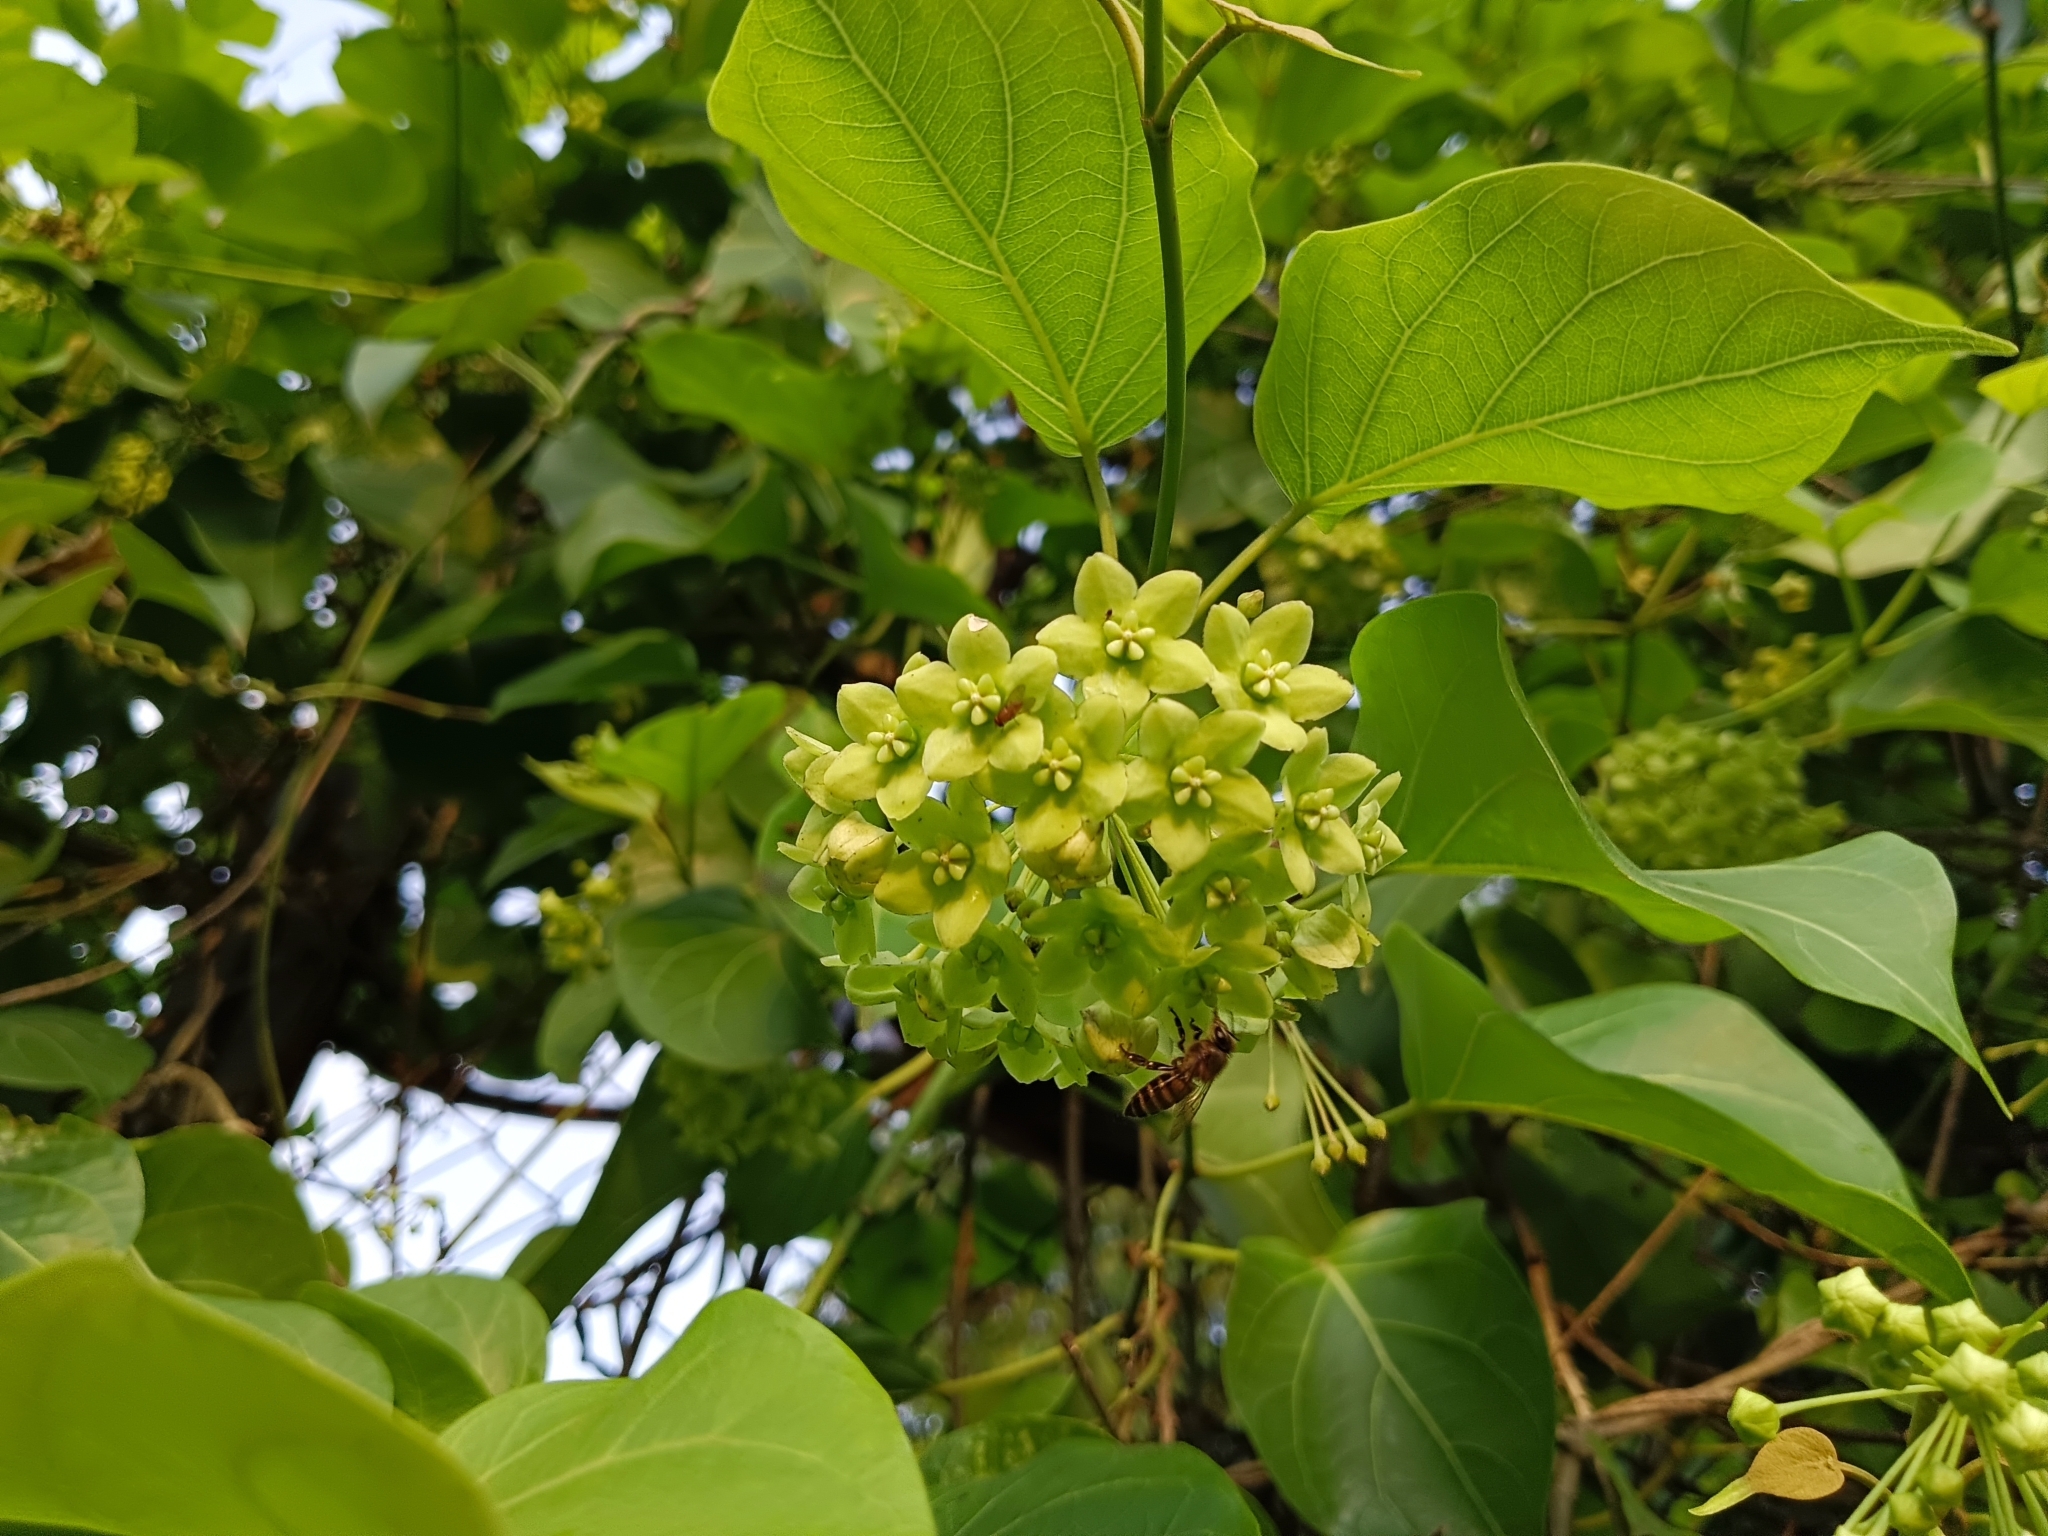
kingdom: Plantae
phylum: Tracheophyta
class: Magnoliopsida
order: Gentianales
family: Apocynaceae
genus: Stephanotis
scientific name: Stephanotis volubilis
